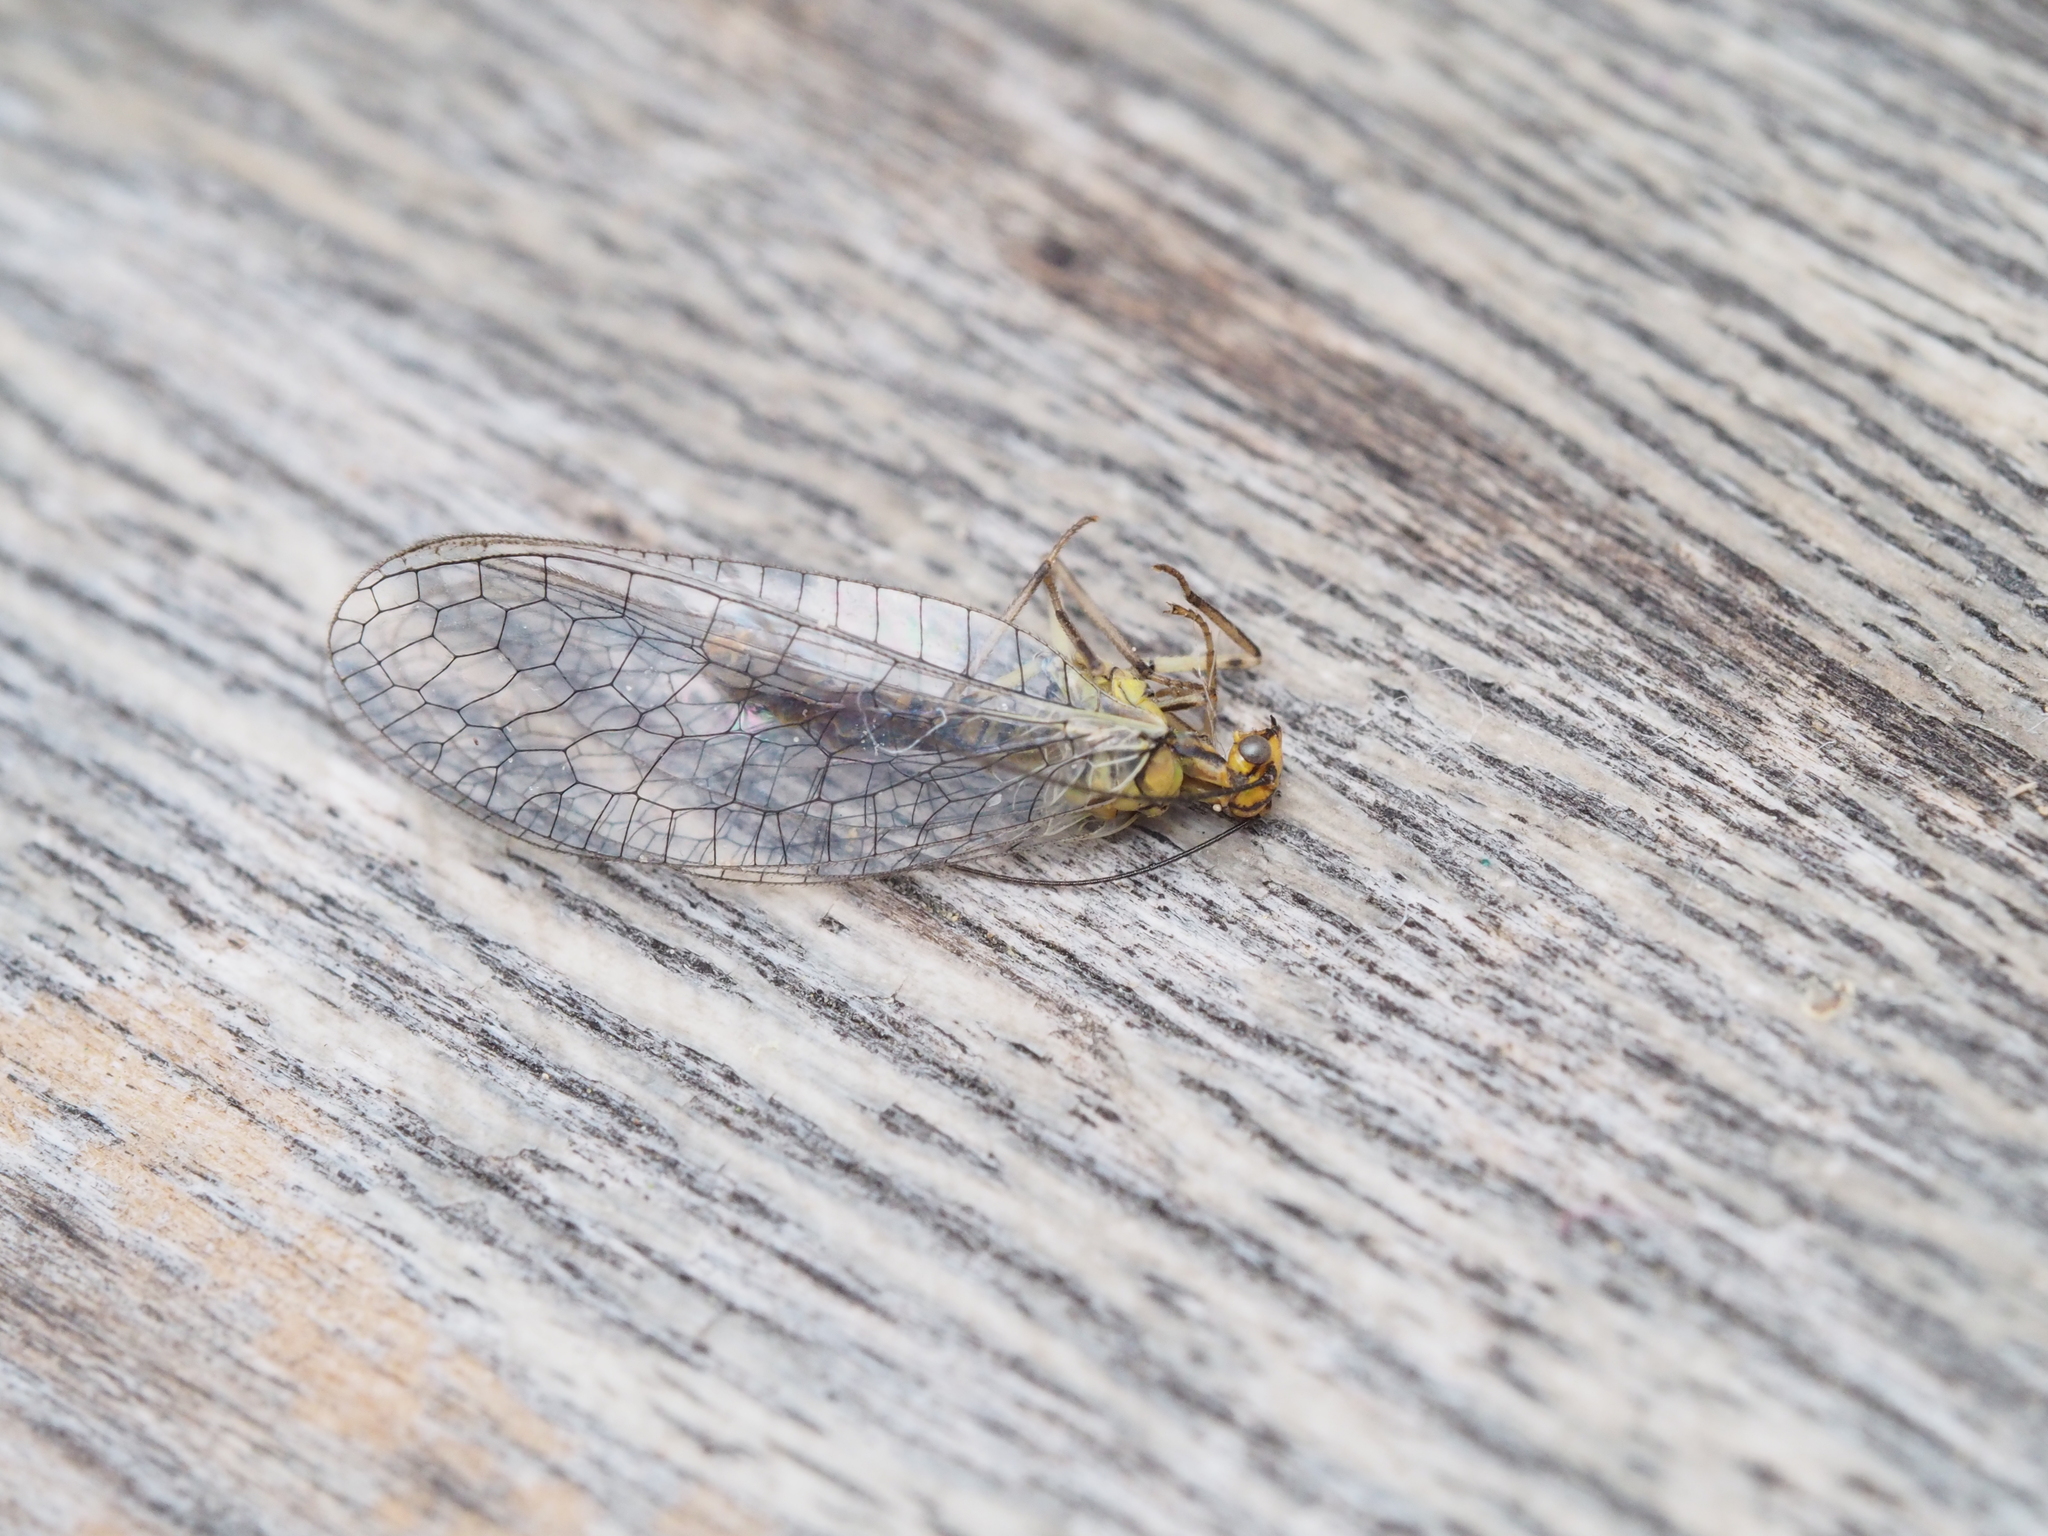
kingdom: Animalia
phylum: Arthropoda
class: Insecta
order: Neuroptera
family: Chrysopidae
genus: Hypochrysa
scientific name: Hypochrysa elegans
